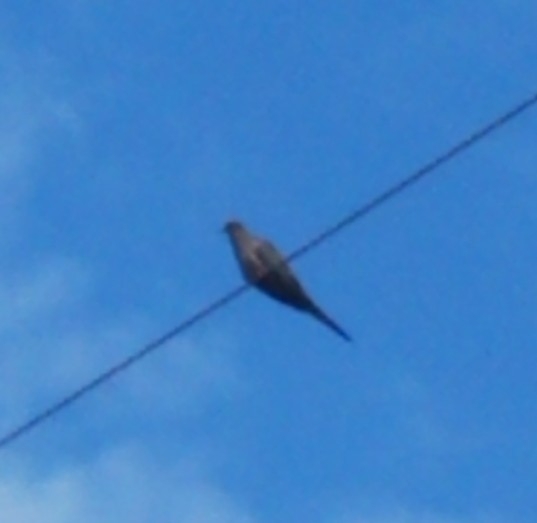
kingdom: Animalia
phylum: Chordata
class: Aves
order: Columbiformes
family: Columbidae
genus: Zenaida
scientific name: Zenaida macroura
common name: Mourning dove
